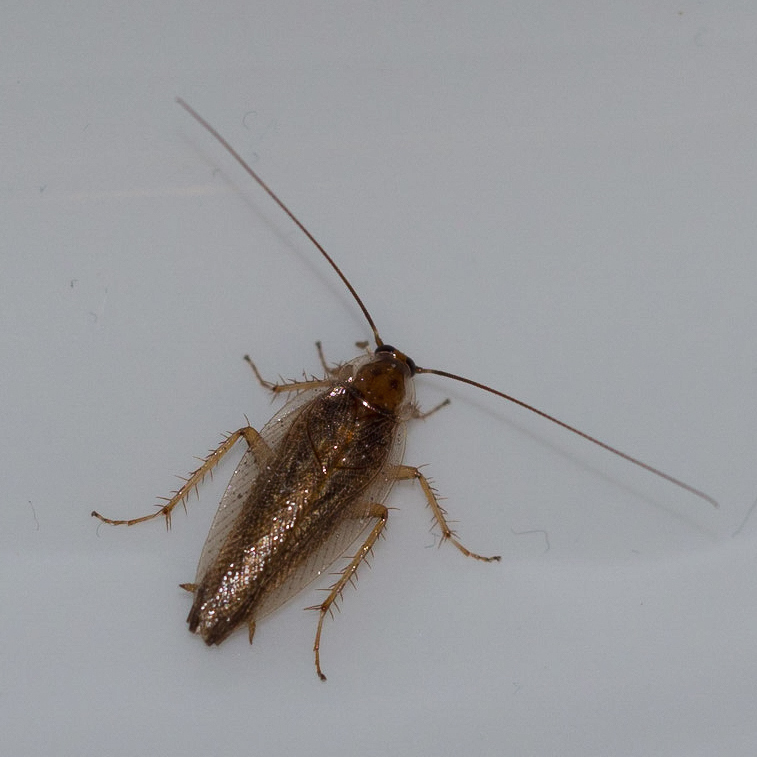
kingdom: Animalia
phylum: Arthropoda
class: Insecta
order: Blattodea
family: Ectobiidae
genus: Ectobius
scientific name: Ectobius vittiventris
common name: Garden cockroach
